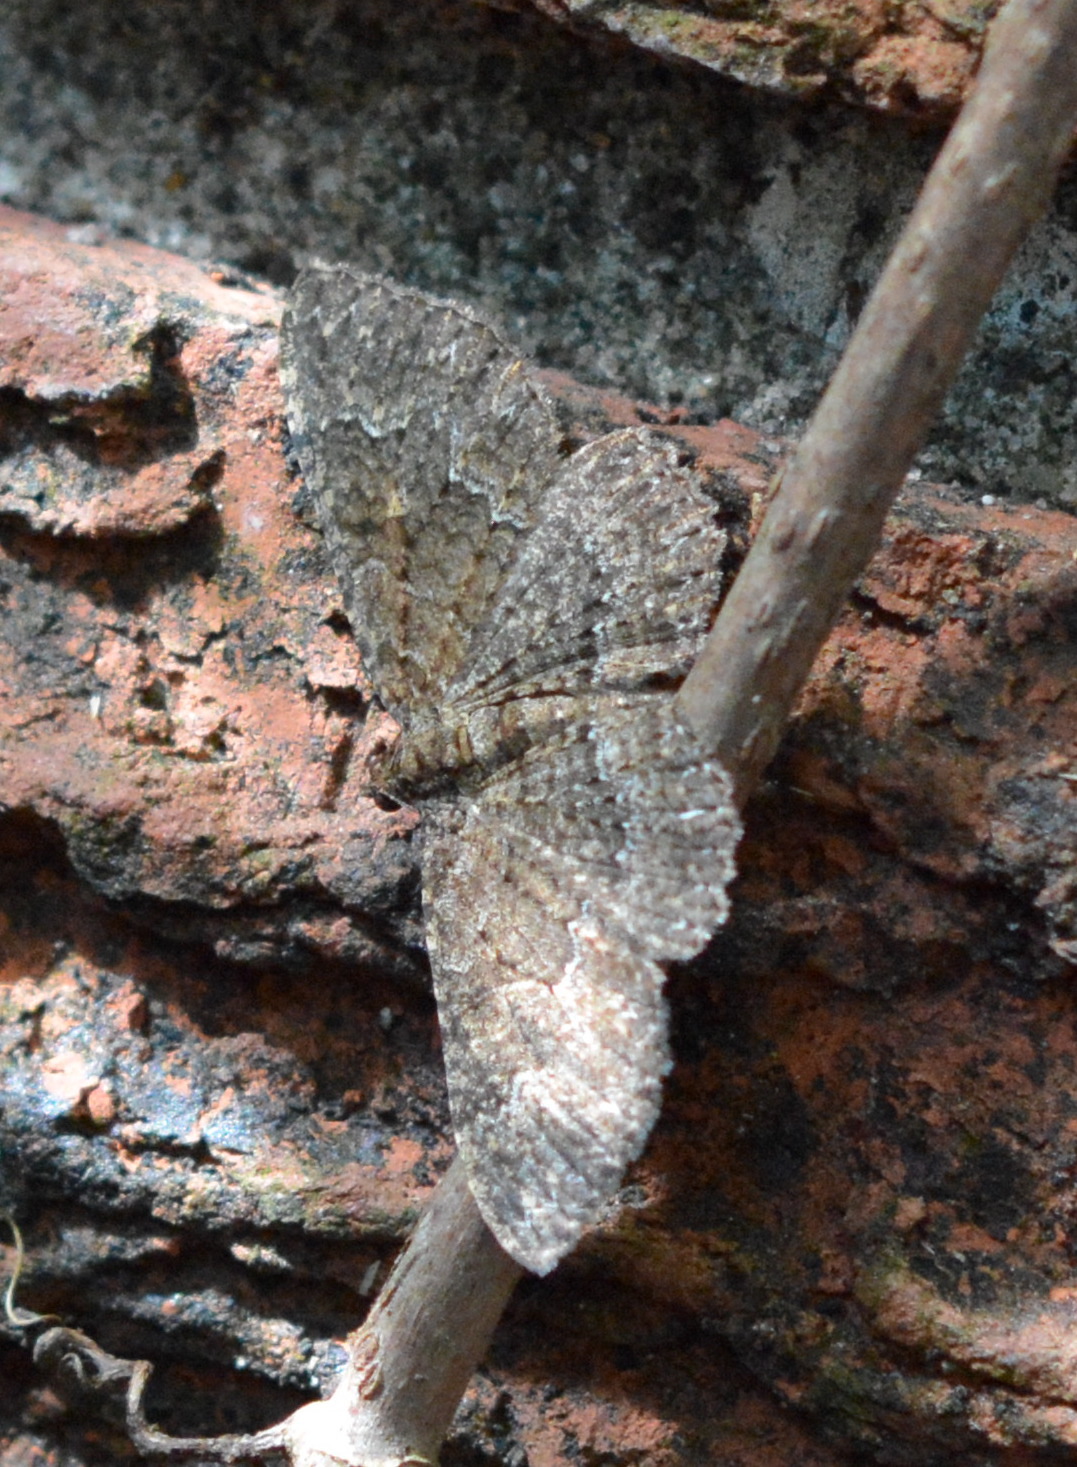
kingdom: Animalia
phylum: Arthropoda
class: Insecta
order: Lepidoptera
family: Geometridae
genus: Disclisioprocta
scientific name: Disclisioprocta stellata
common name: Somber carpet
